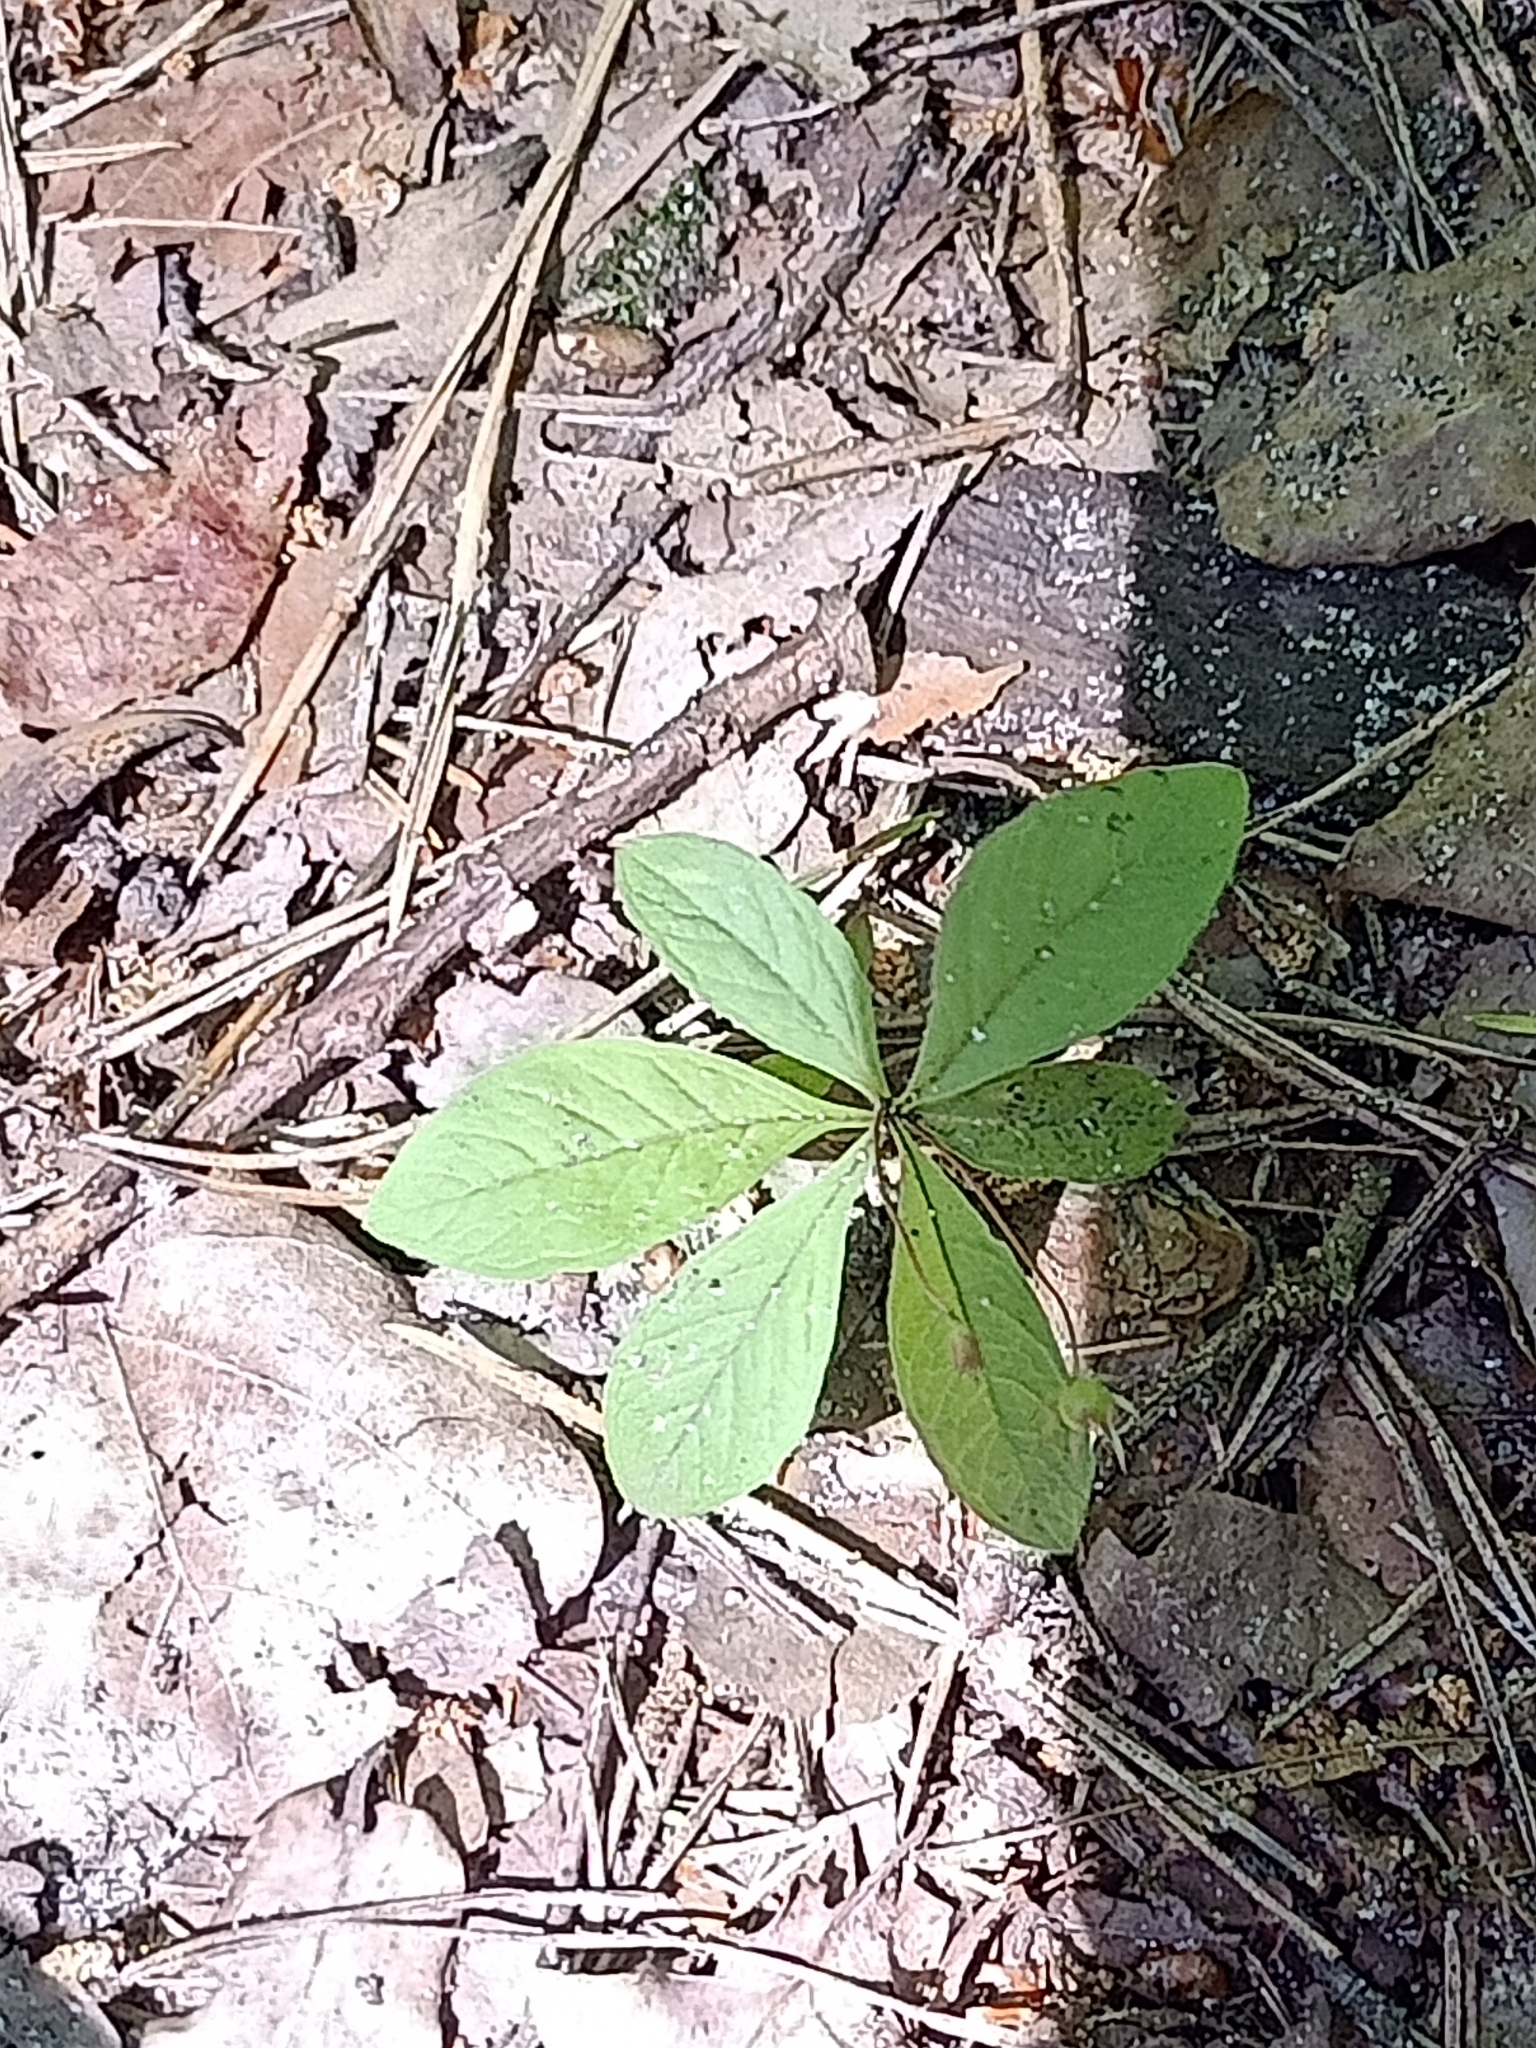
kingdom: Plantae
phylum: Tracheophyta
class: Magnoliopsida
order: Ericales
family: Primulaceae
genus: Lysimachia
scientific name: Lysimachia europaea
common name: Arctic starflower
